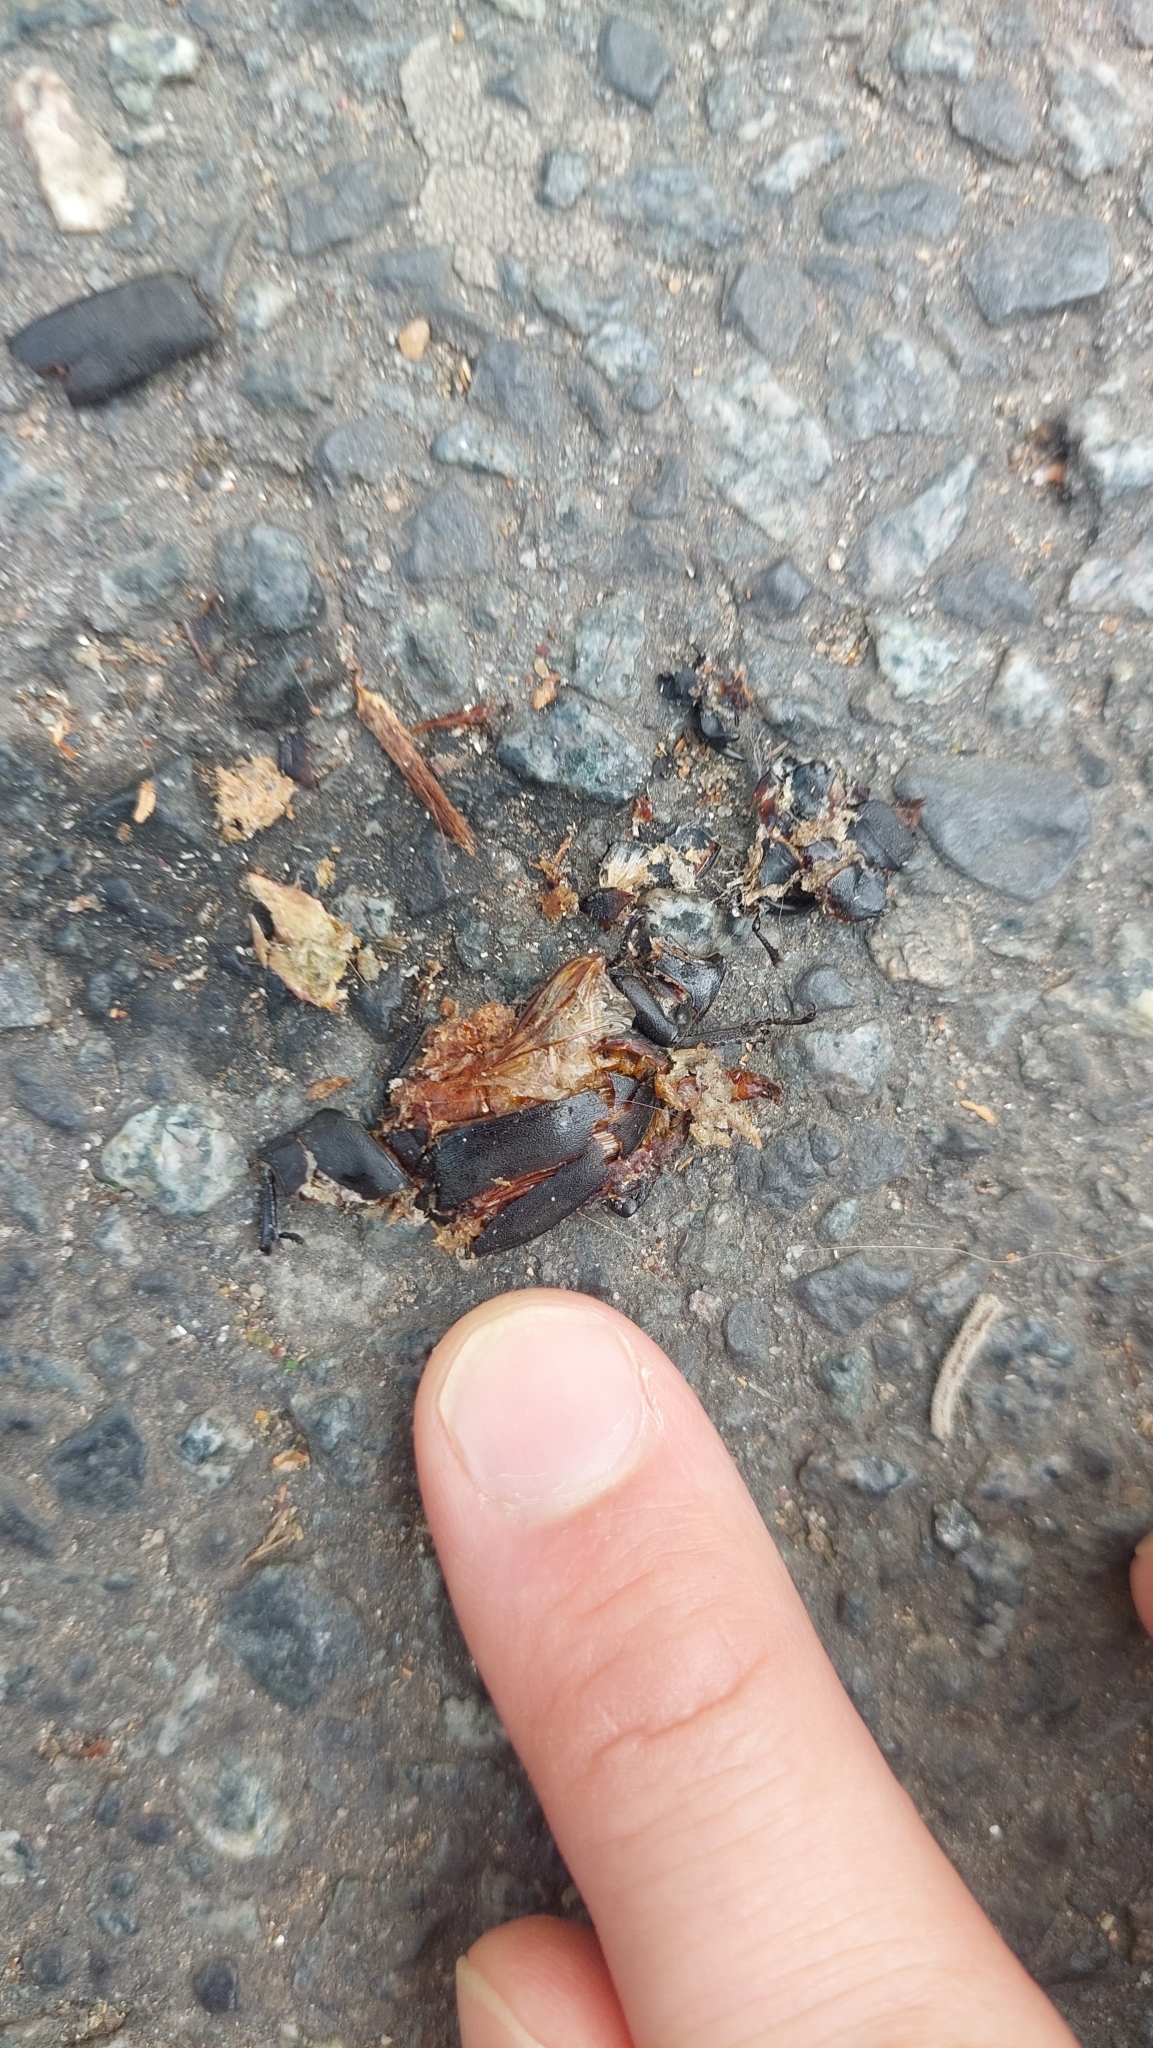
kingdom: Animalia
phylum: Arthropoda
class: Insecta
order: Coleoptera
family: Lucanidae
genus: Dorcus
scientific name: Dorcus parallelipipedus
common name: Lesser stag beetle
